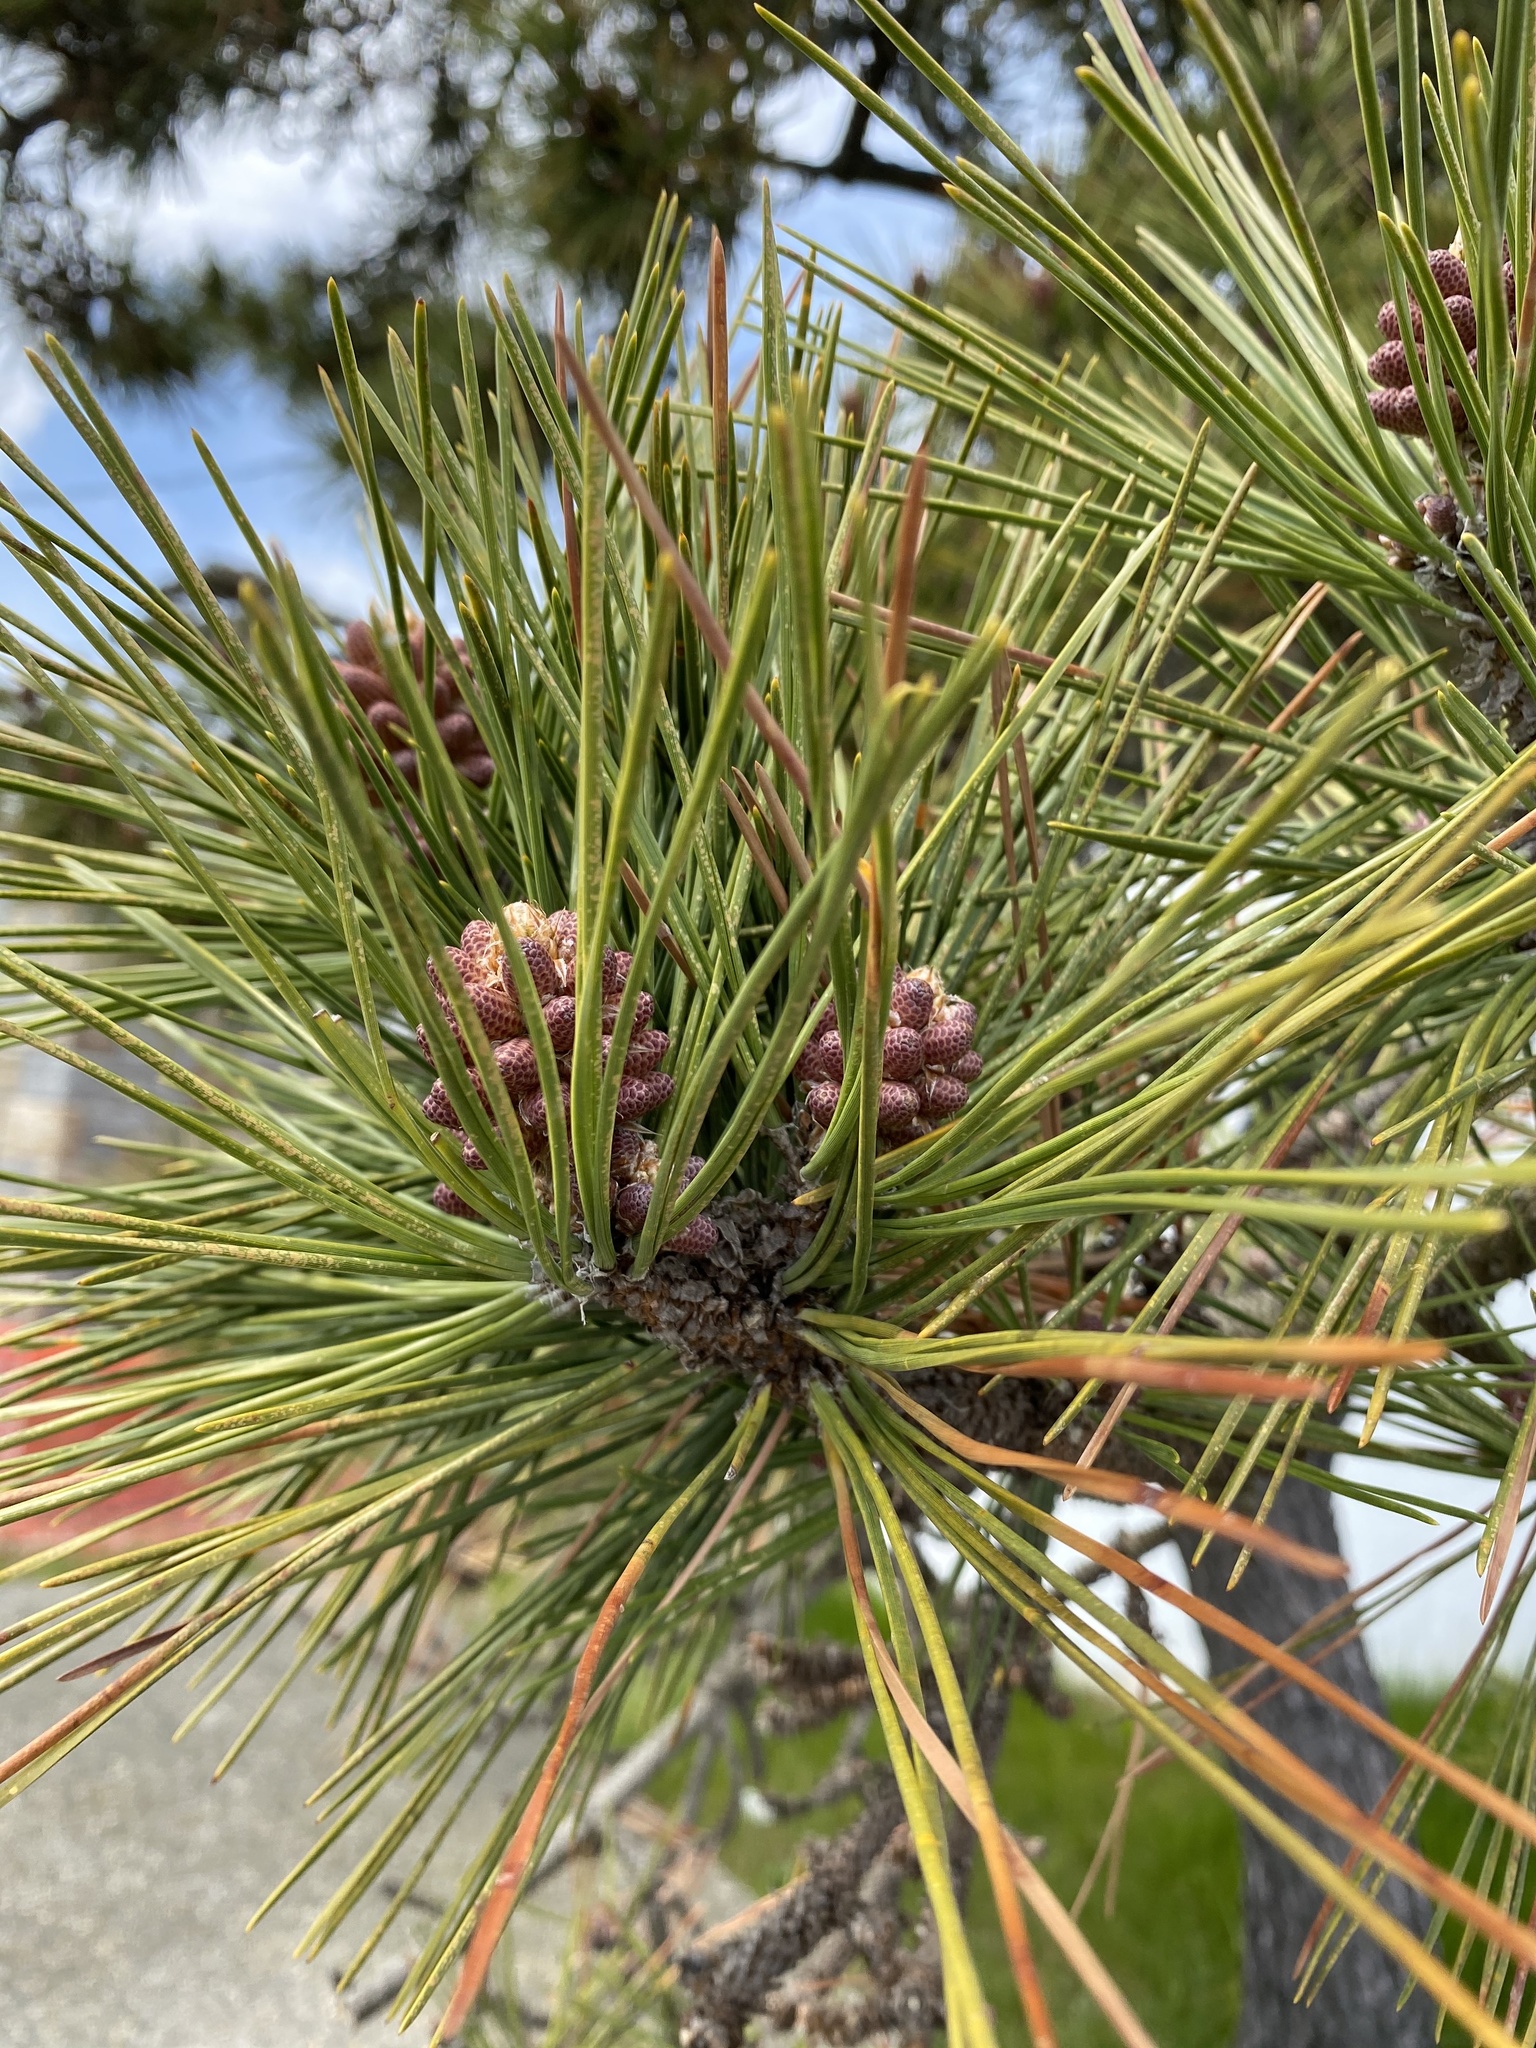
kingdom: Plantae
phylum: Tracheophyta
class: Pinopsida
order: Pinales
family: Pinaceae
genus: Pinus
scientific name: Pinus rigida
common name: Pitch pine
